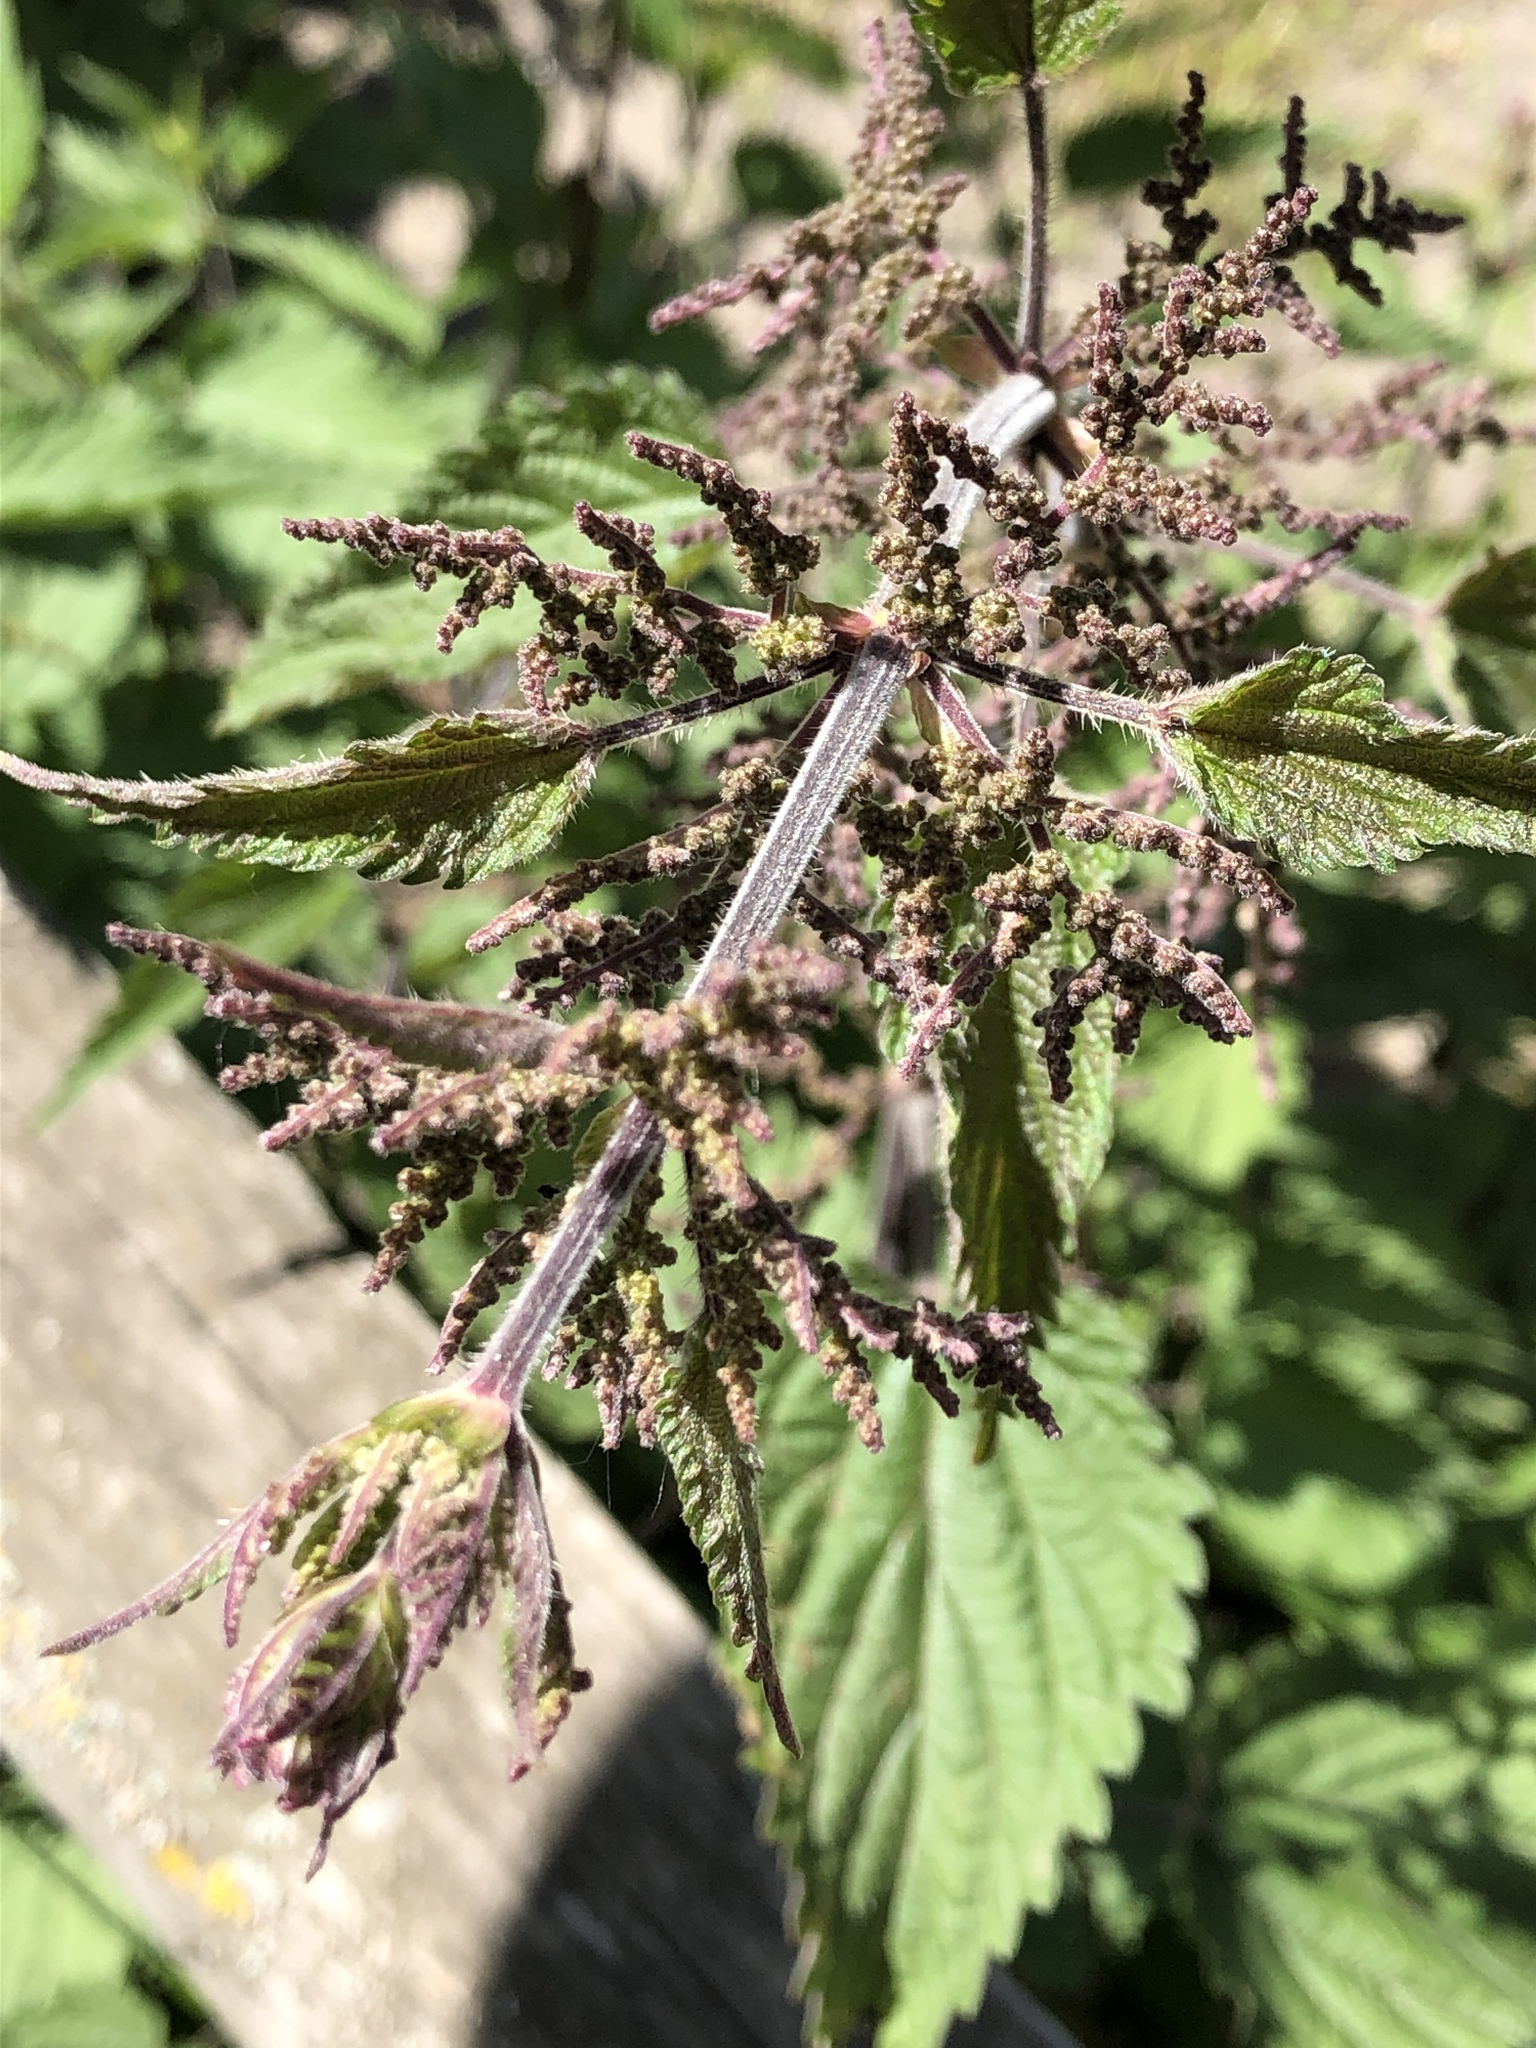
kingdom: Plantae
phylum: Tracheophyta
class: Magnoliopsida
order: Rosales
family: Urticaceae
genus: Urtica
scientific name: Urtica dioica
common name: Common nettle
